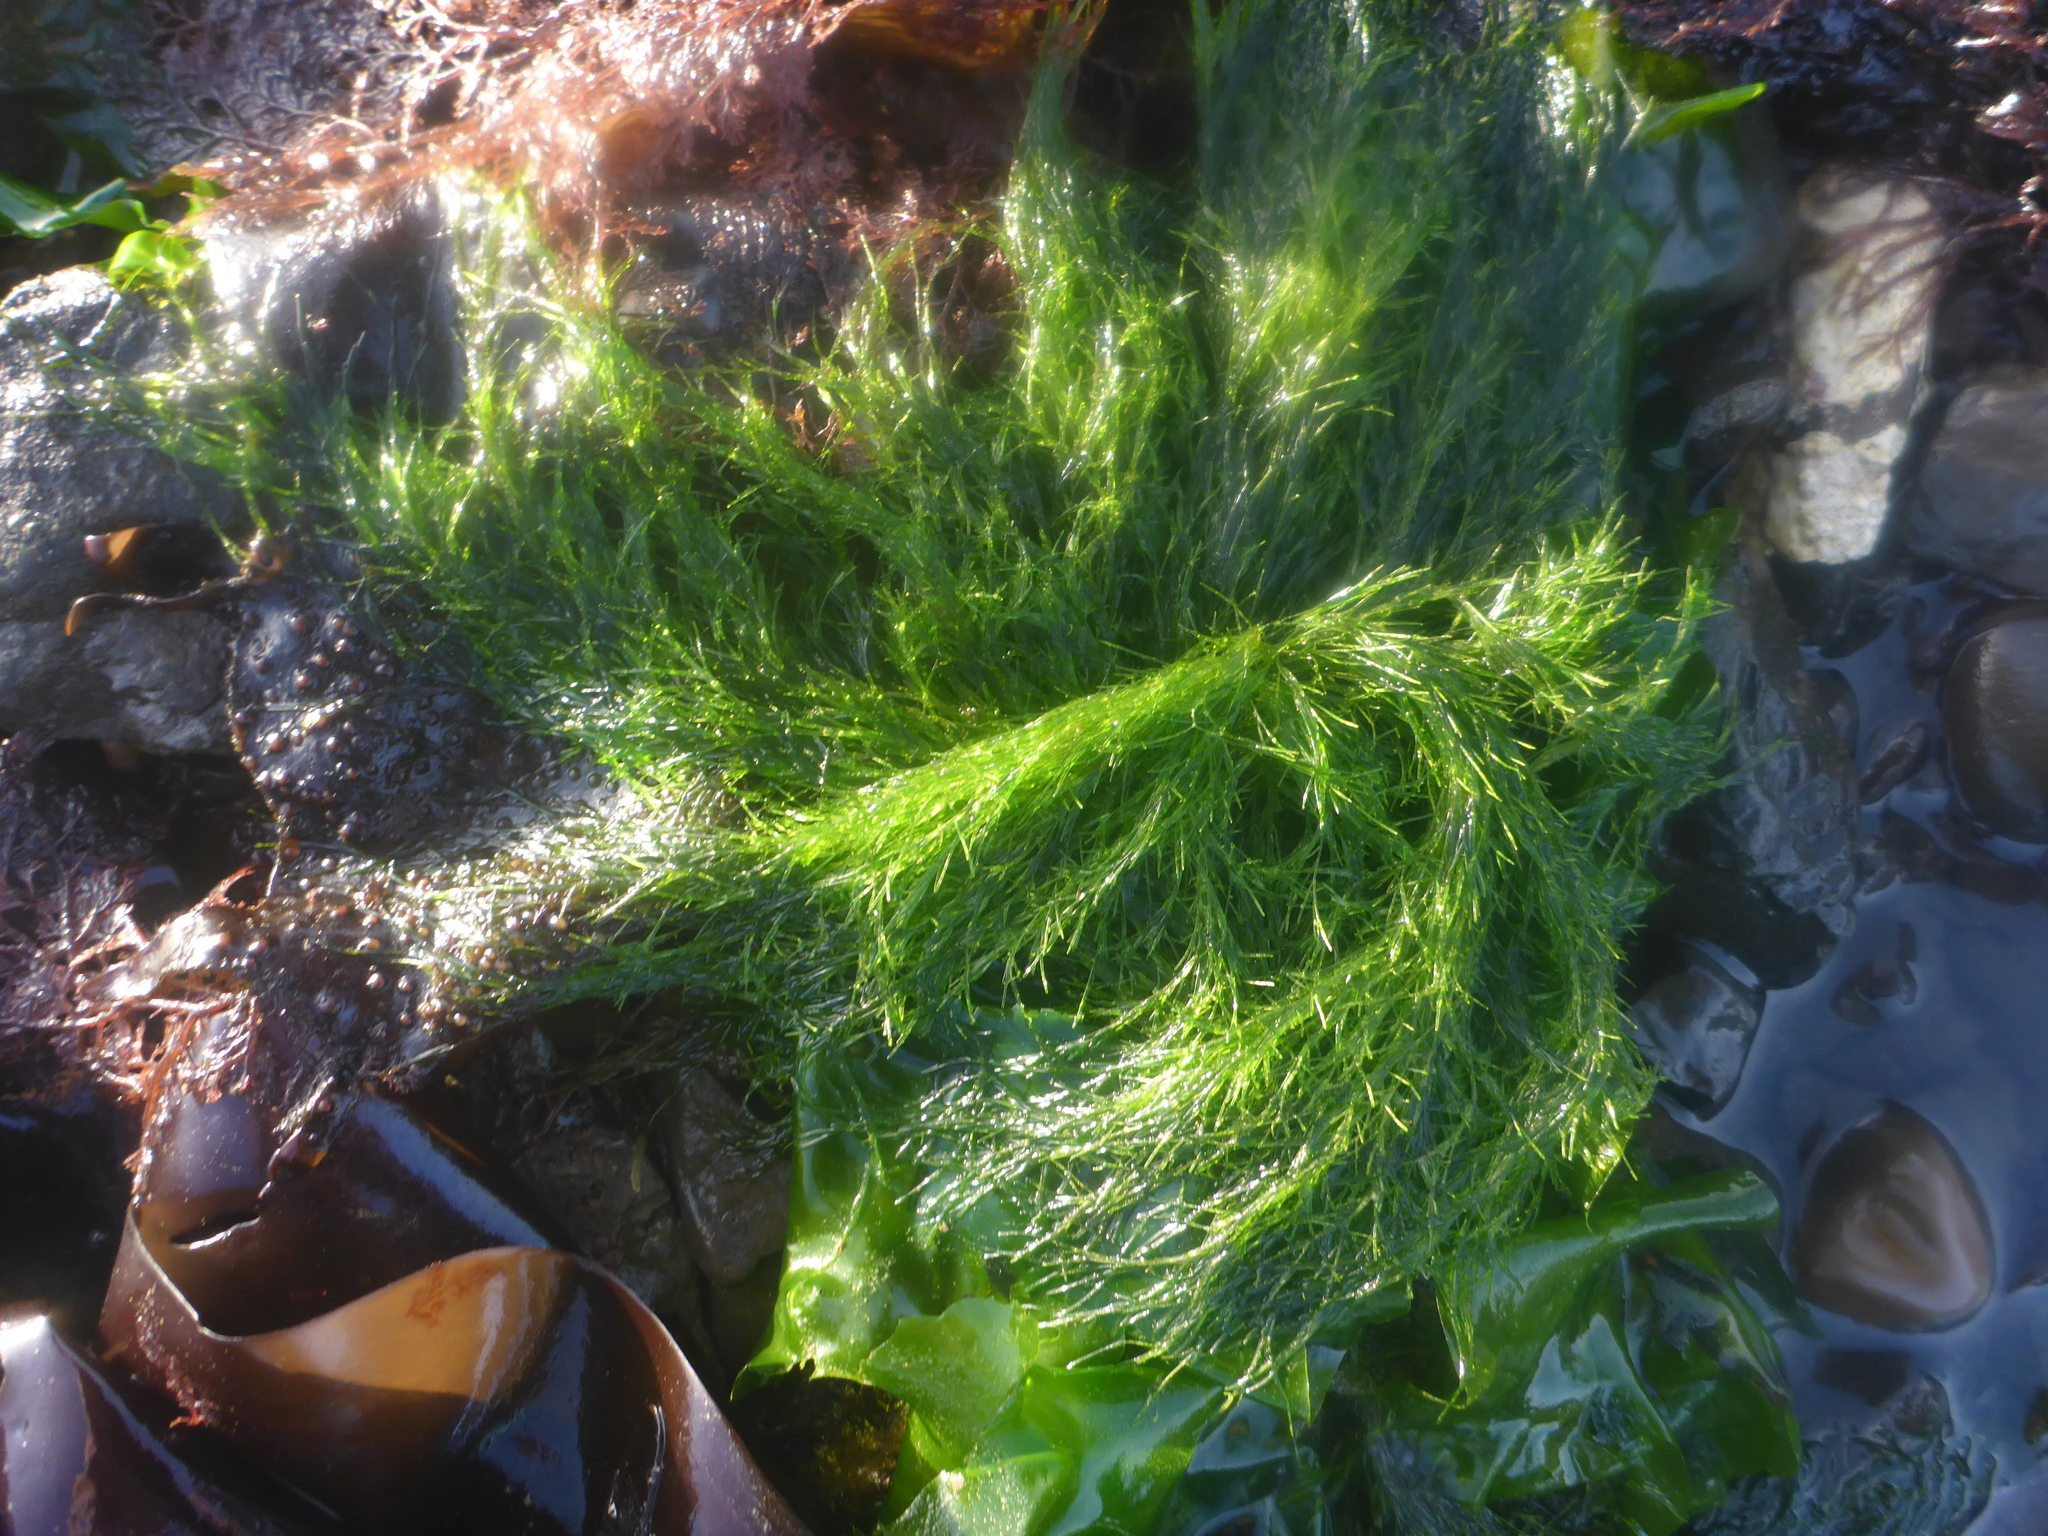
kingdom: Plantae
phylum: Chlorophyta
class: Ulvophyceae
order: Ulotrichales
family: Ulotrichaceae
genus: Acrosiphonia
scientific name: Acrosiphonia
